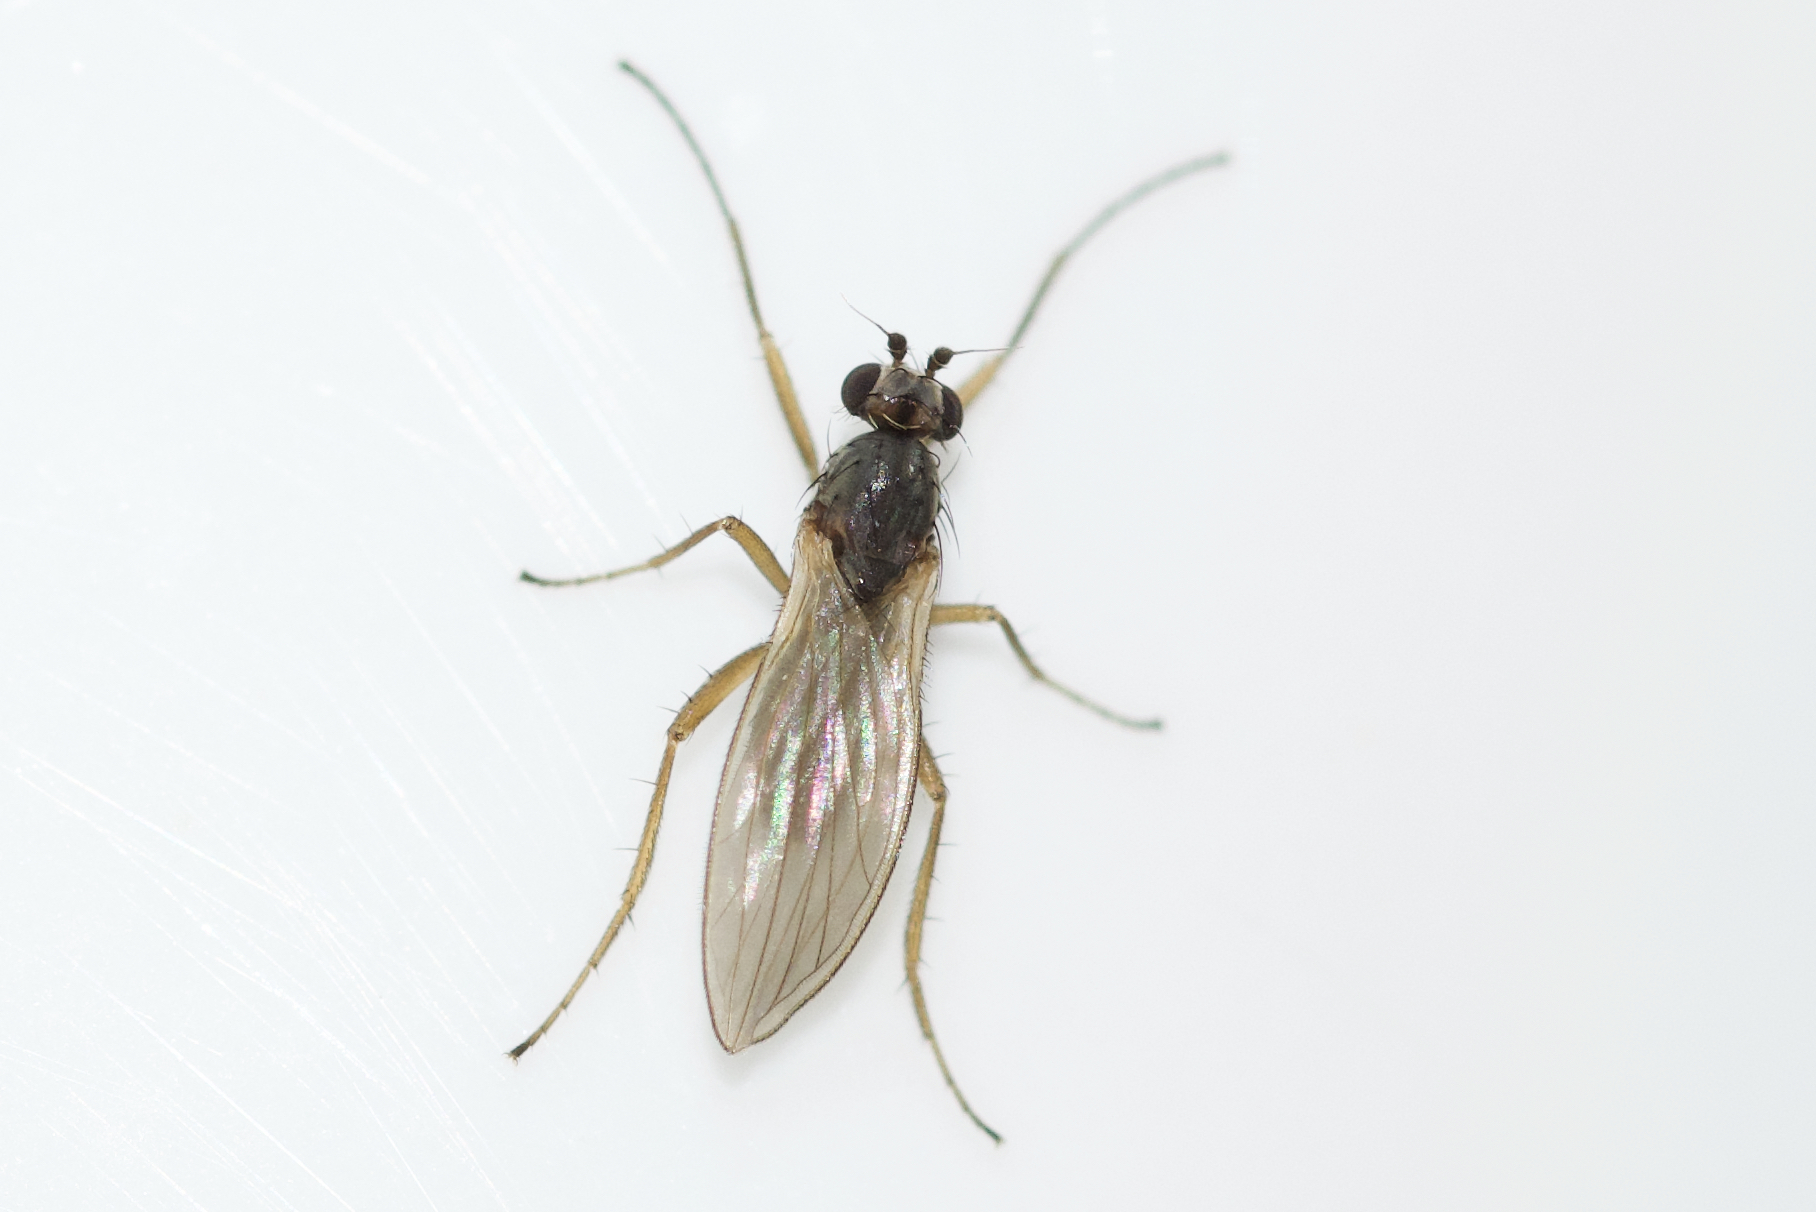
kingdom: Animalia
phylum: Arthropoda
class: Insecta
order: Diptera
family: Lonchopteridae
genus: Lonchoptera
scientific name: Lonchoptera bifurcata
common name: Spear-winged fly
